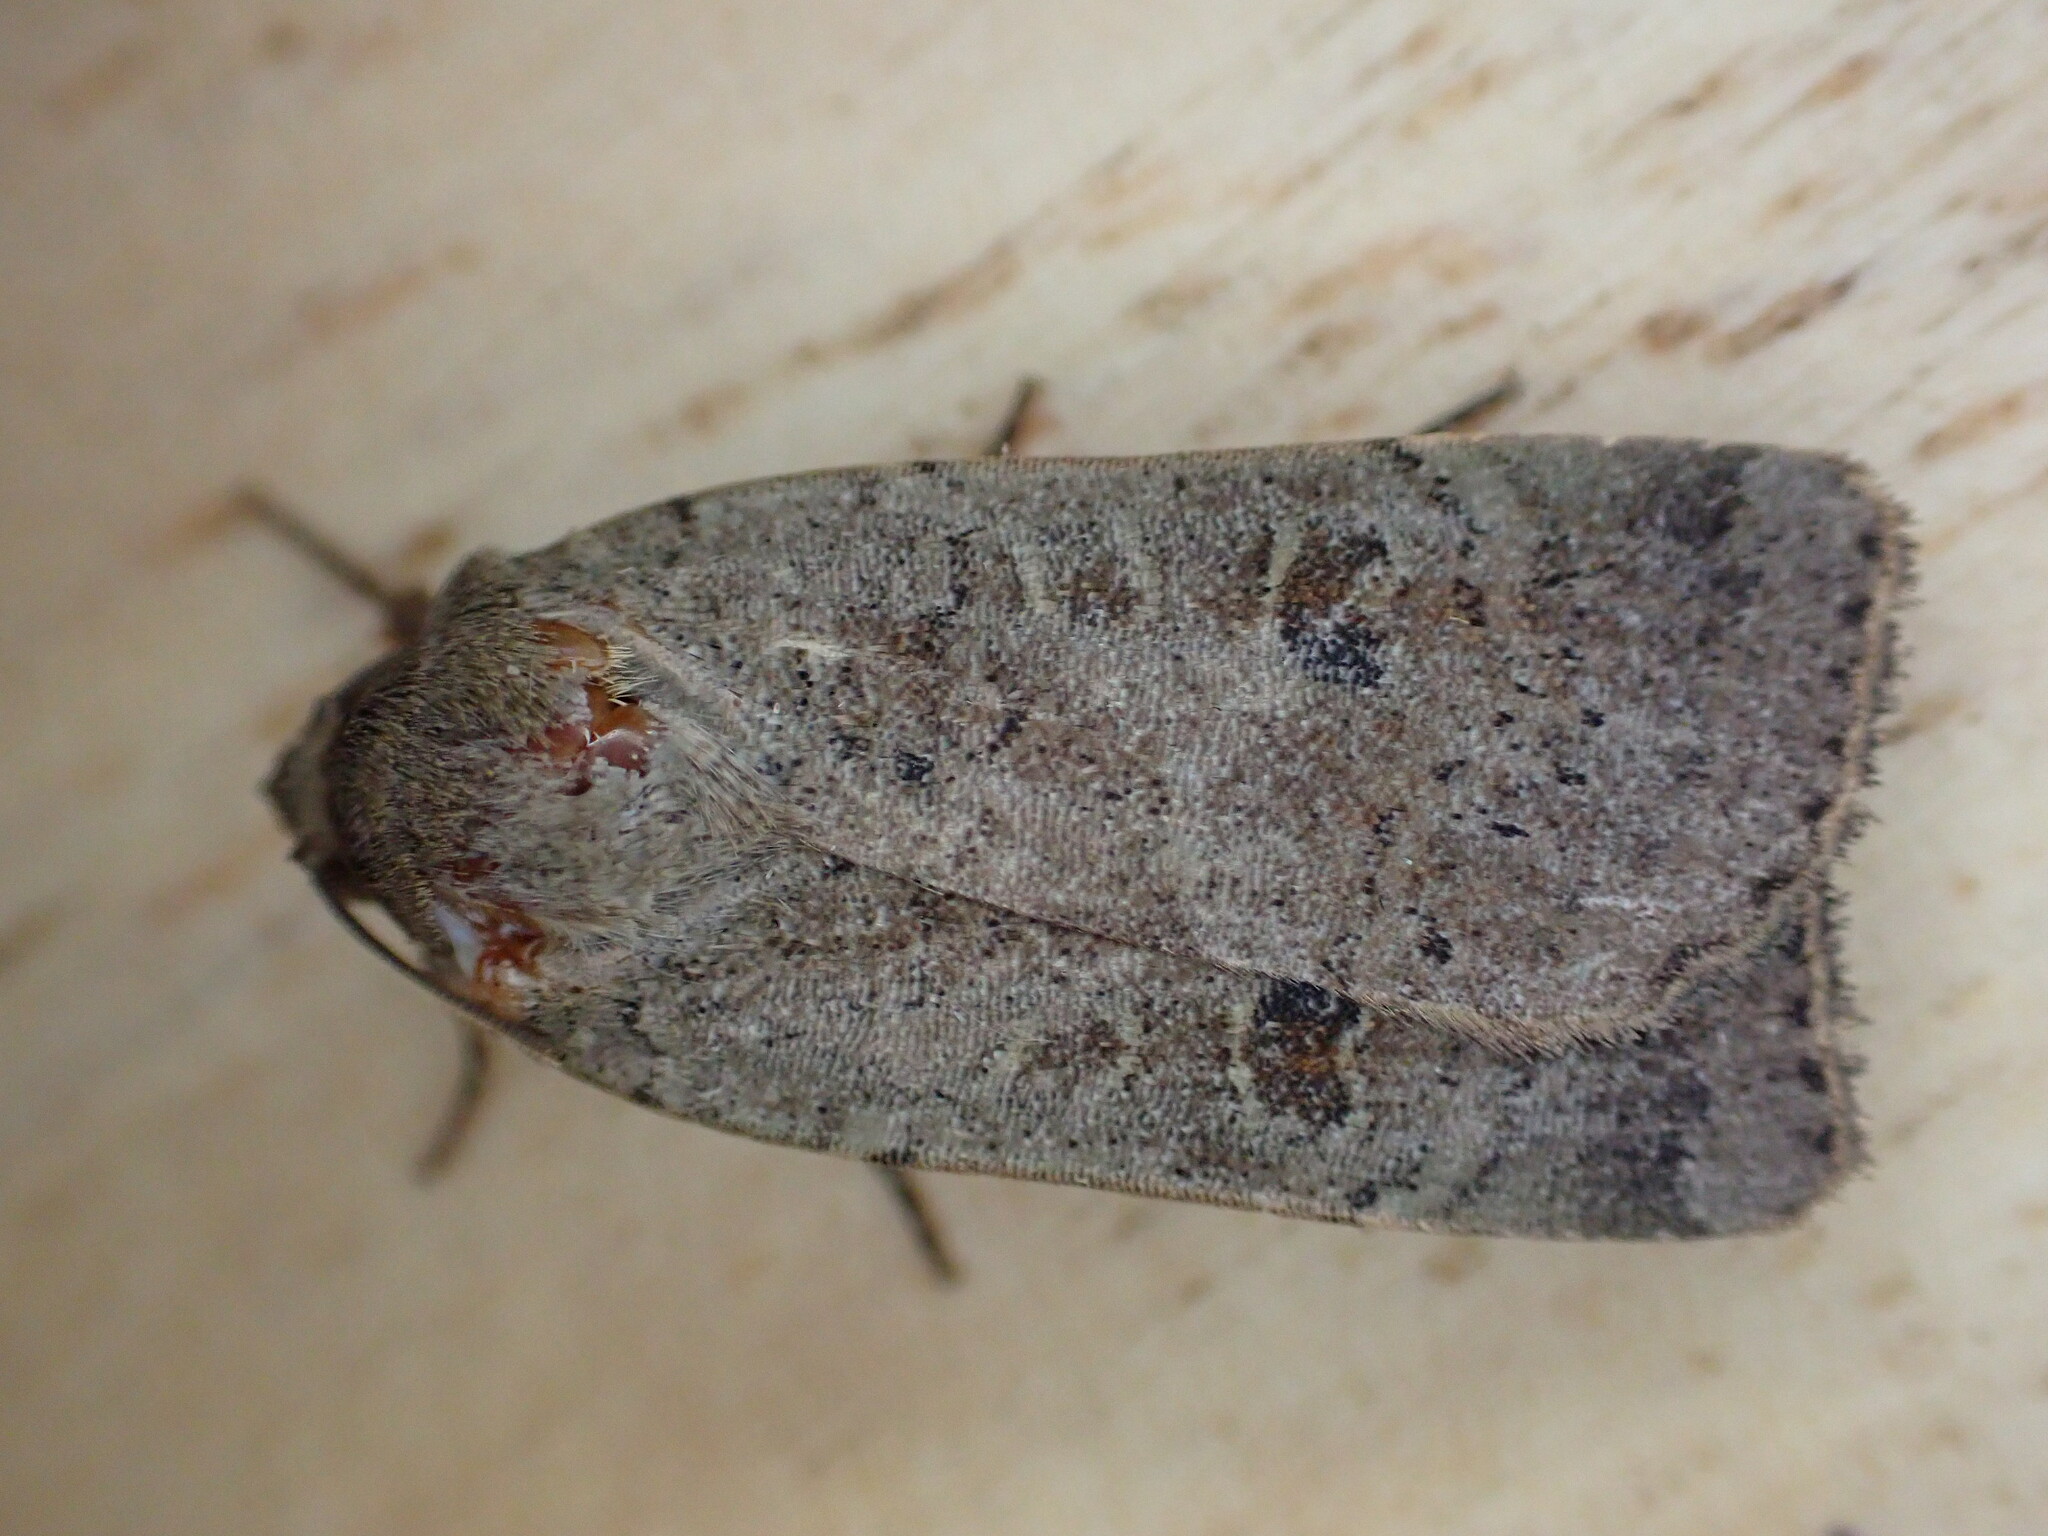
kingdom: Animalia
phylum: Arthropoda
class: Insecta
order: Lepidoptera
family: Noctuidae
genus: Noctua
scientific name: Noctua comes
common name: Lesser yellow underwing
